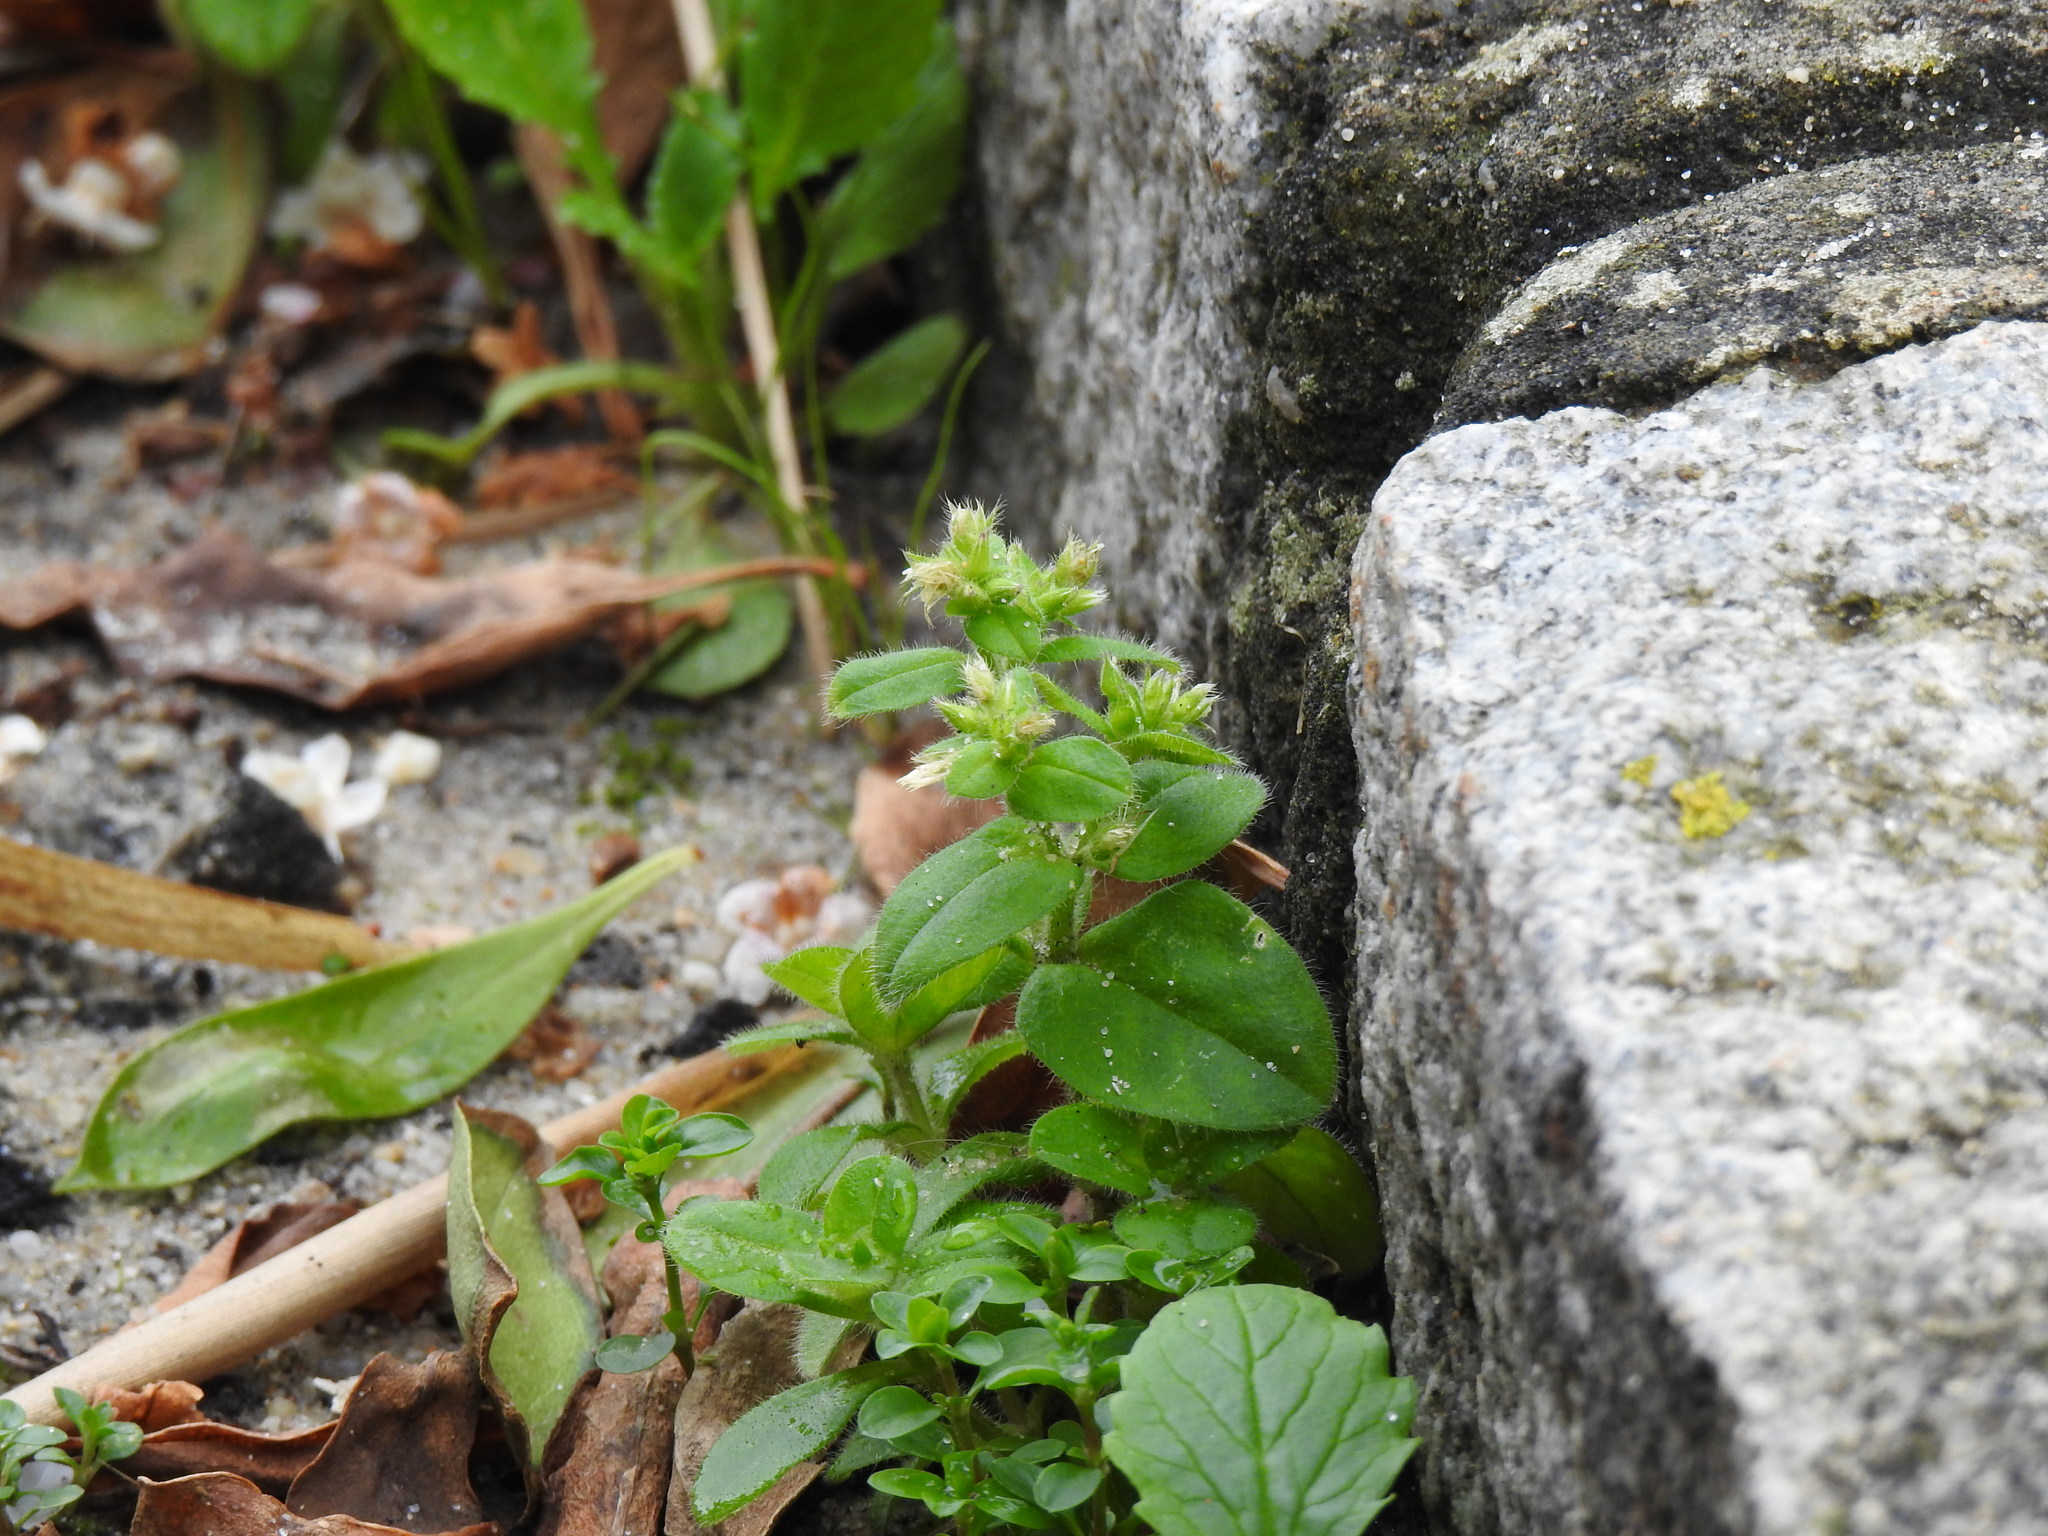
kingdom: Plantae
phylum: Tracheophyta
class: Magnoliopsida
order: Caryophyllales
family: Caryophyllaceae
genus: Cerastium
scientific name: Cerastium glomeratum
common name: Sticky chickweed
